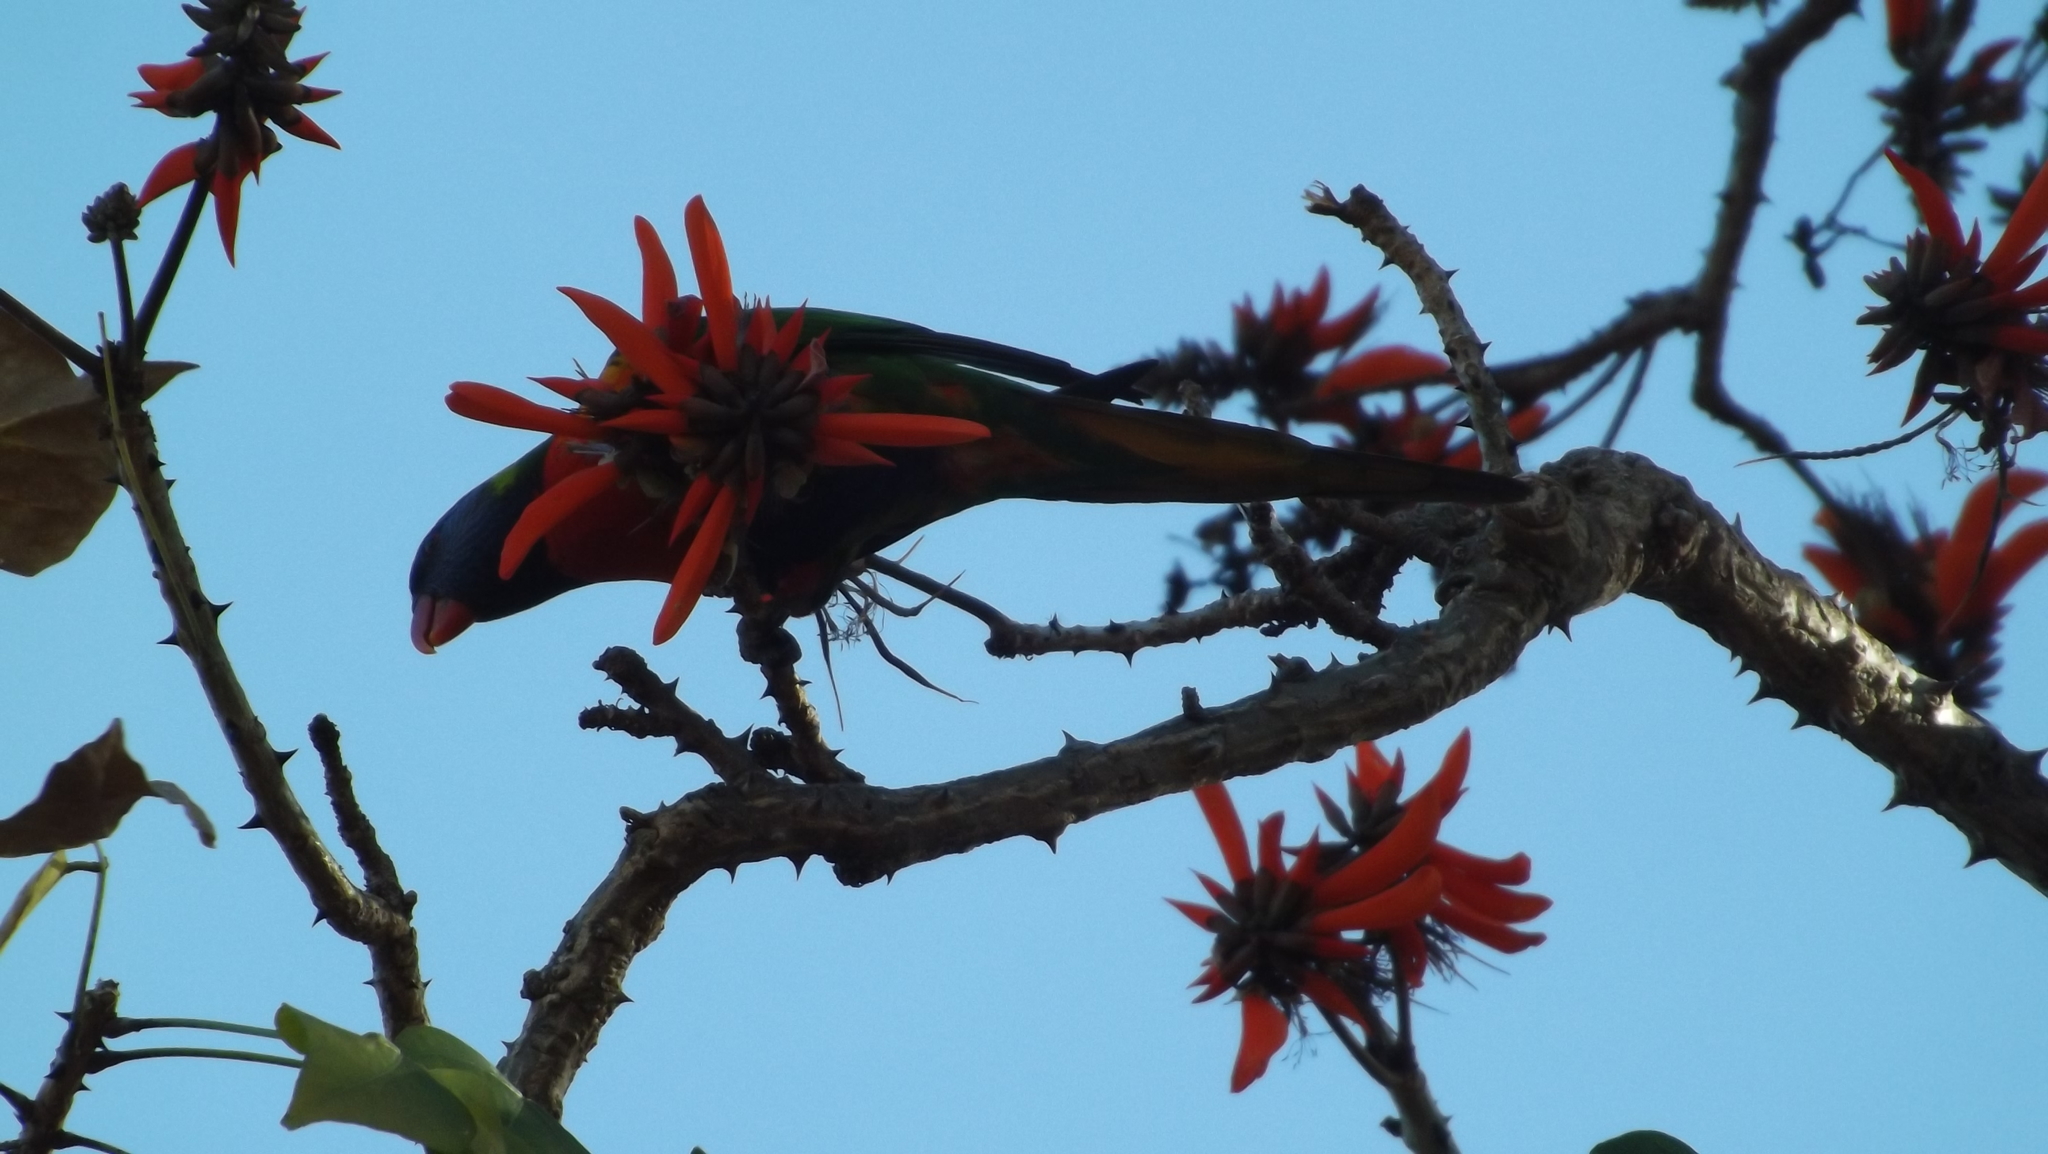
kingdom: Animalia
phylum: Chordata
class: Aves
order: Psittaciformes
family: Psittacidae
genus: Trichoglossus
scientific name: Trichoglossus haematodus
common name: Coconut lorikeet
